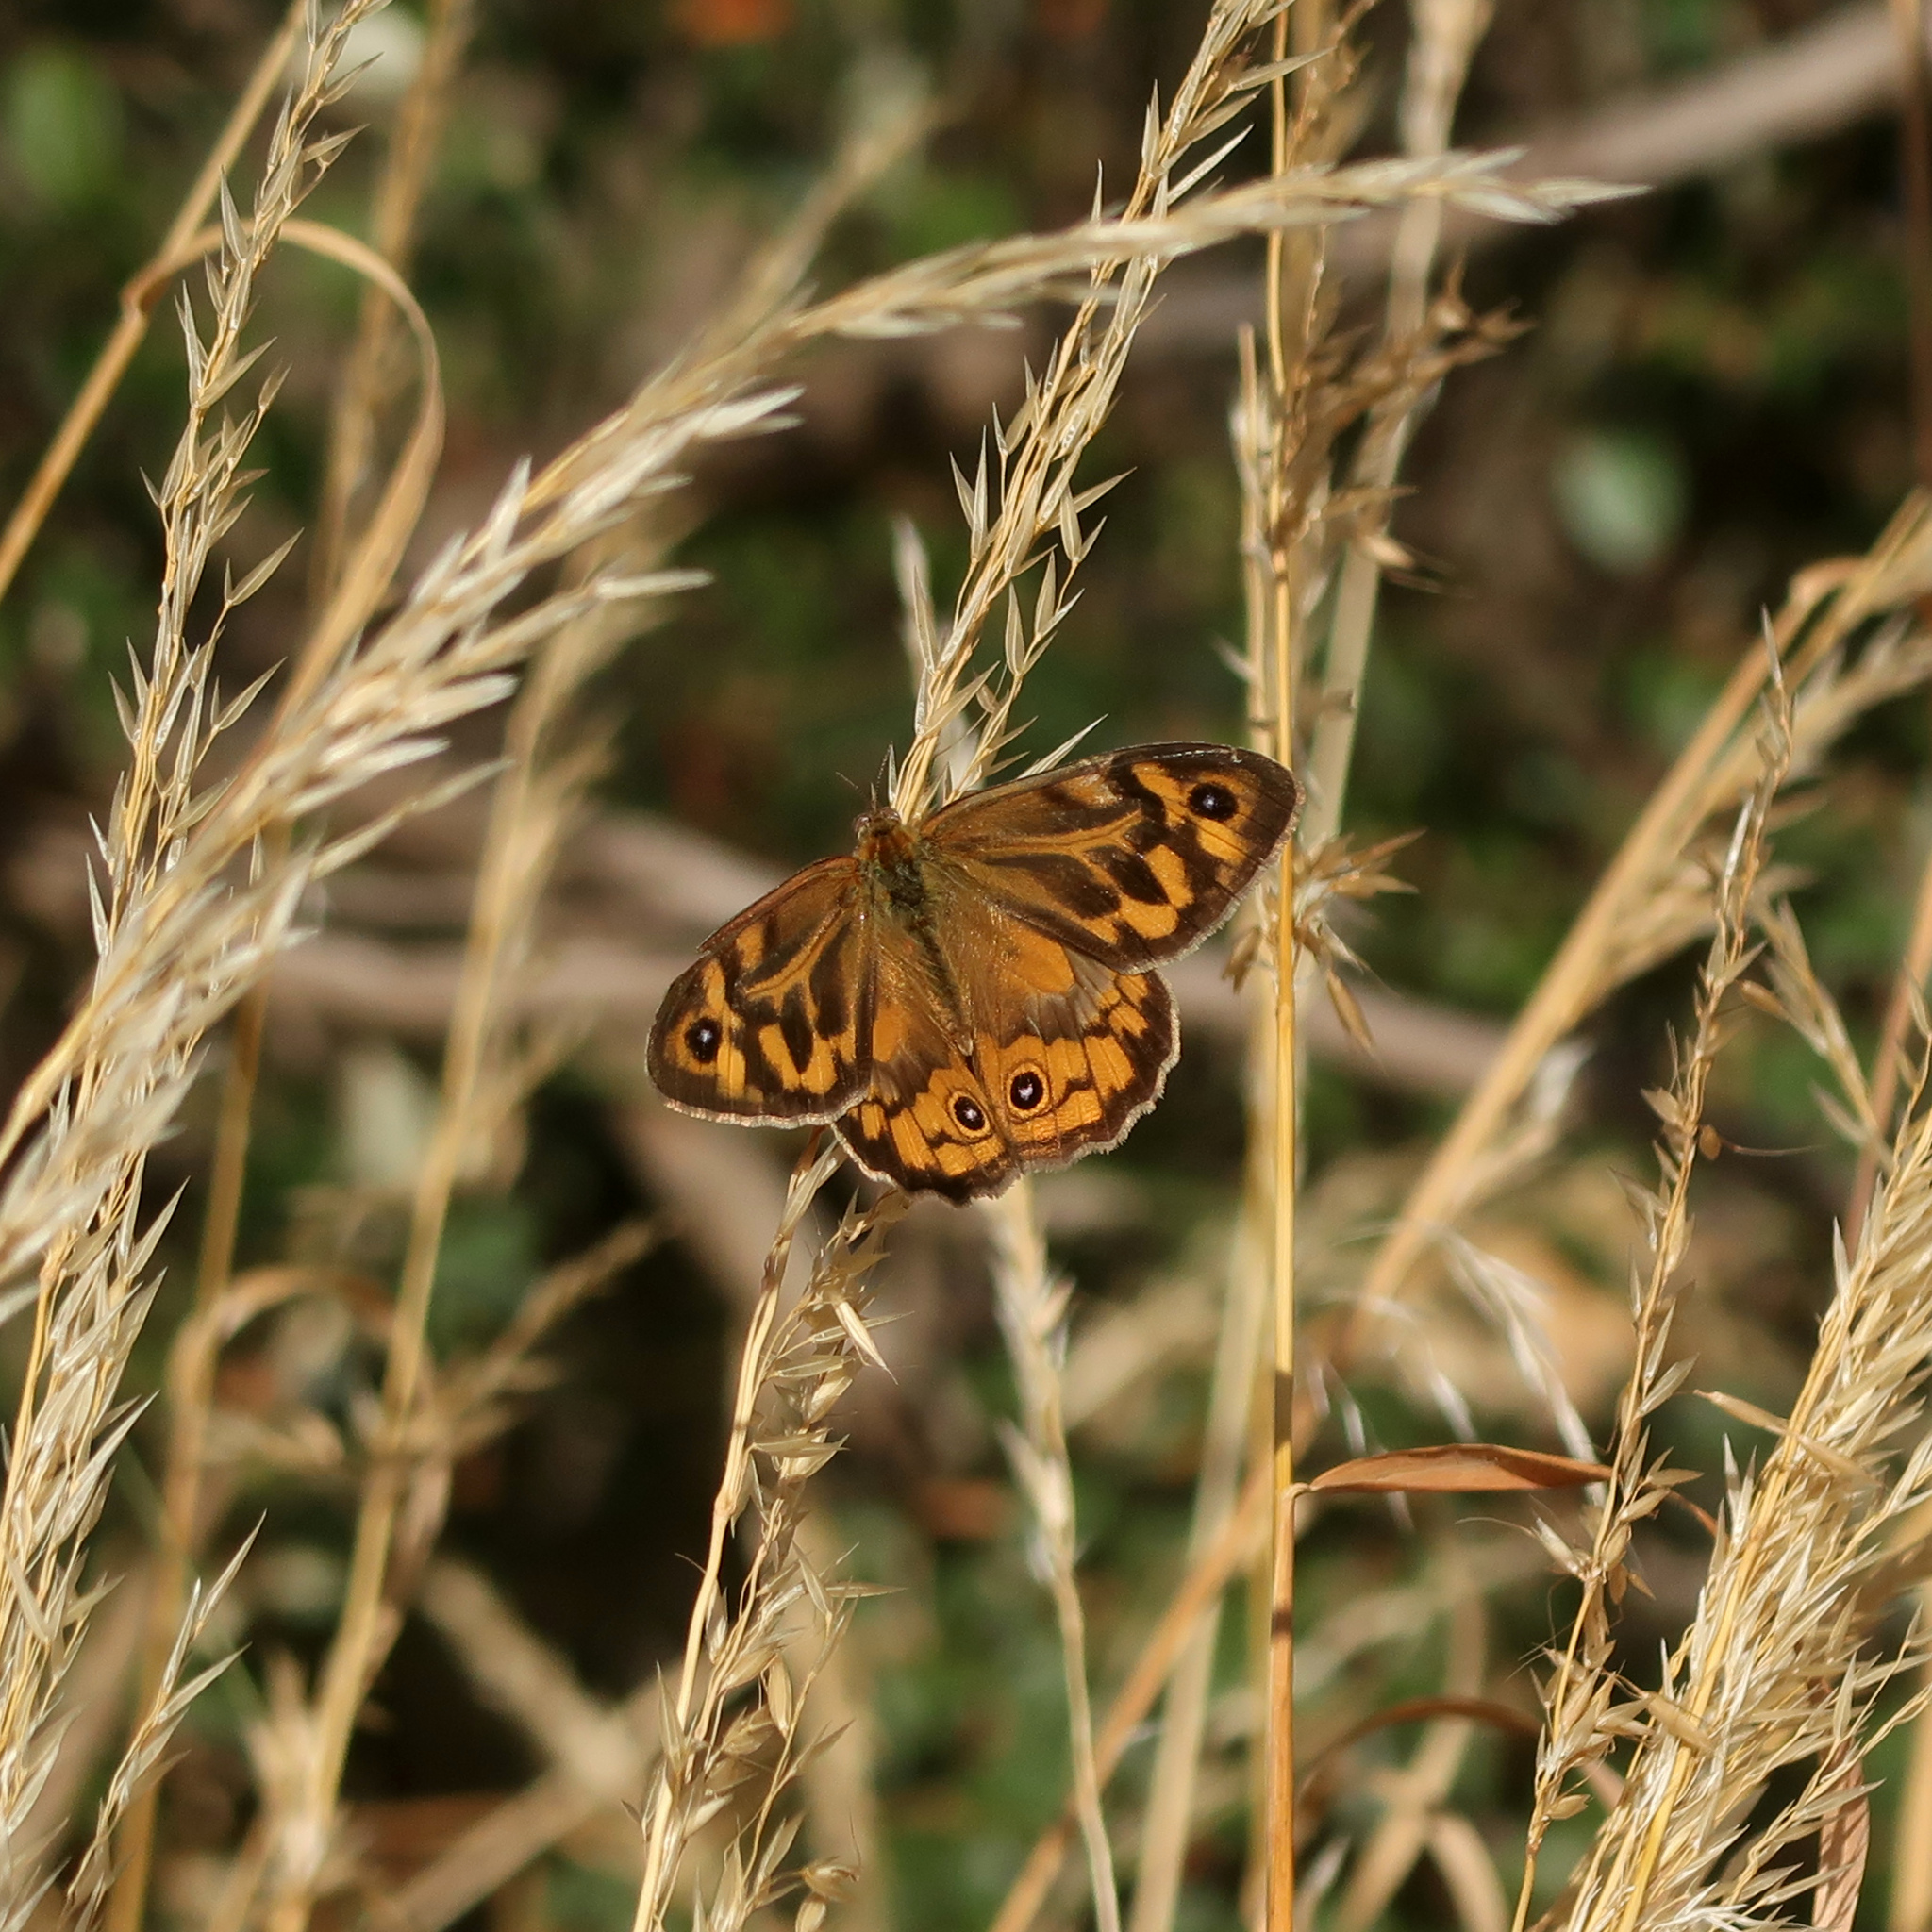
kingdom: Animalia
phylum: Arthropoda
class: Insecta
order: Lepidoptera
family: Nymphalidae
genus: Heteronympha
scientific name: Heteronympha merope
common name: Common brown
